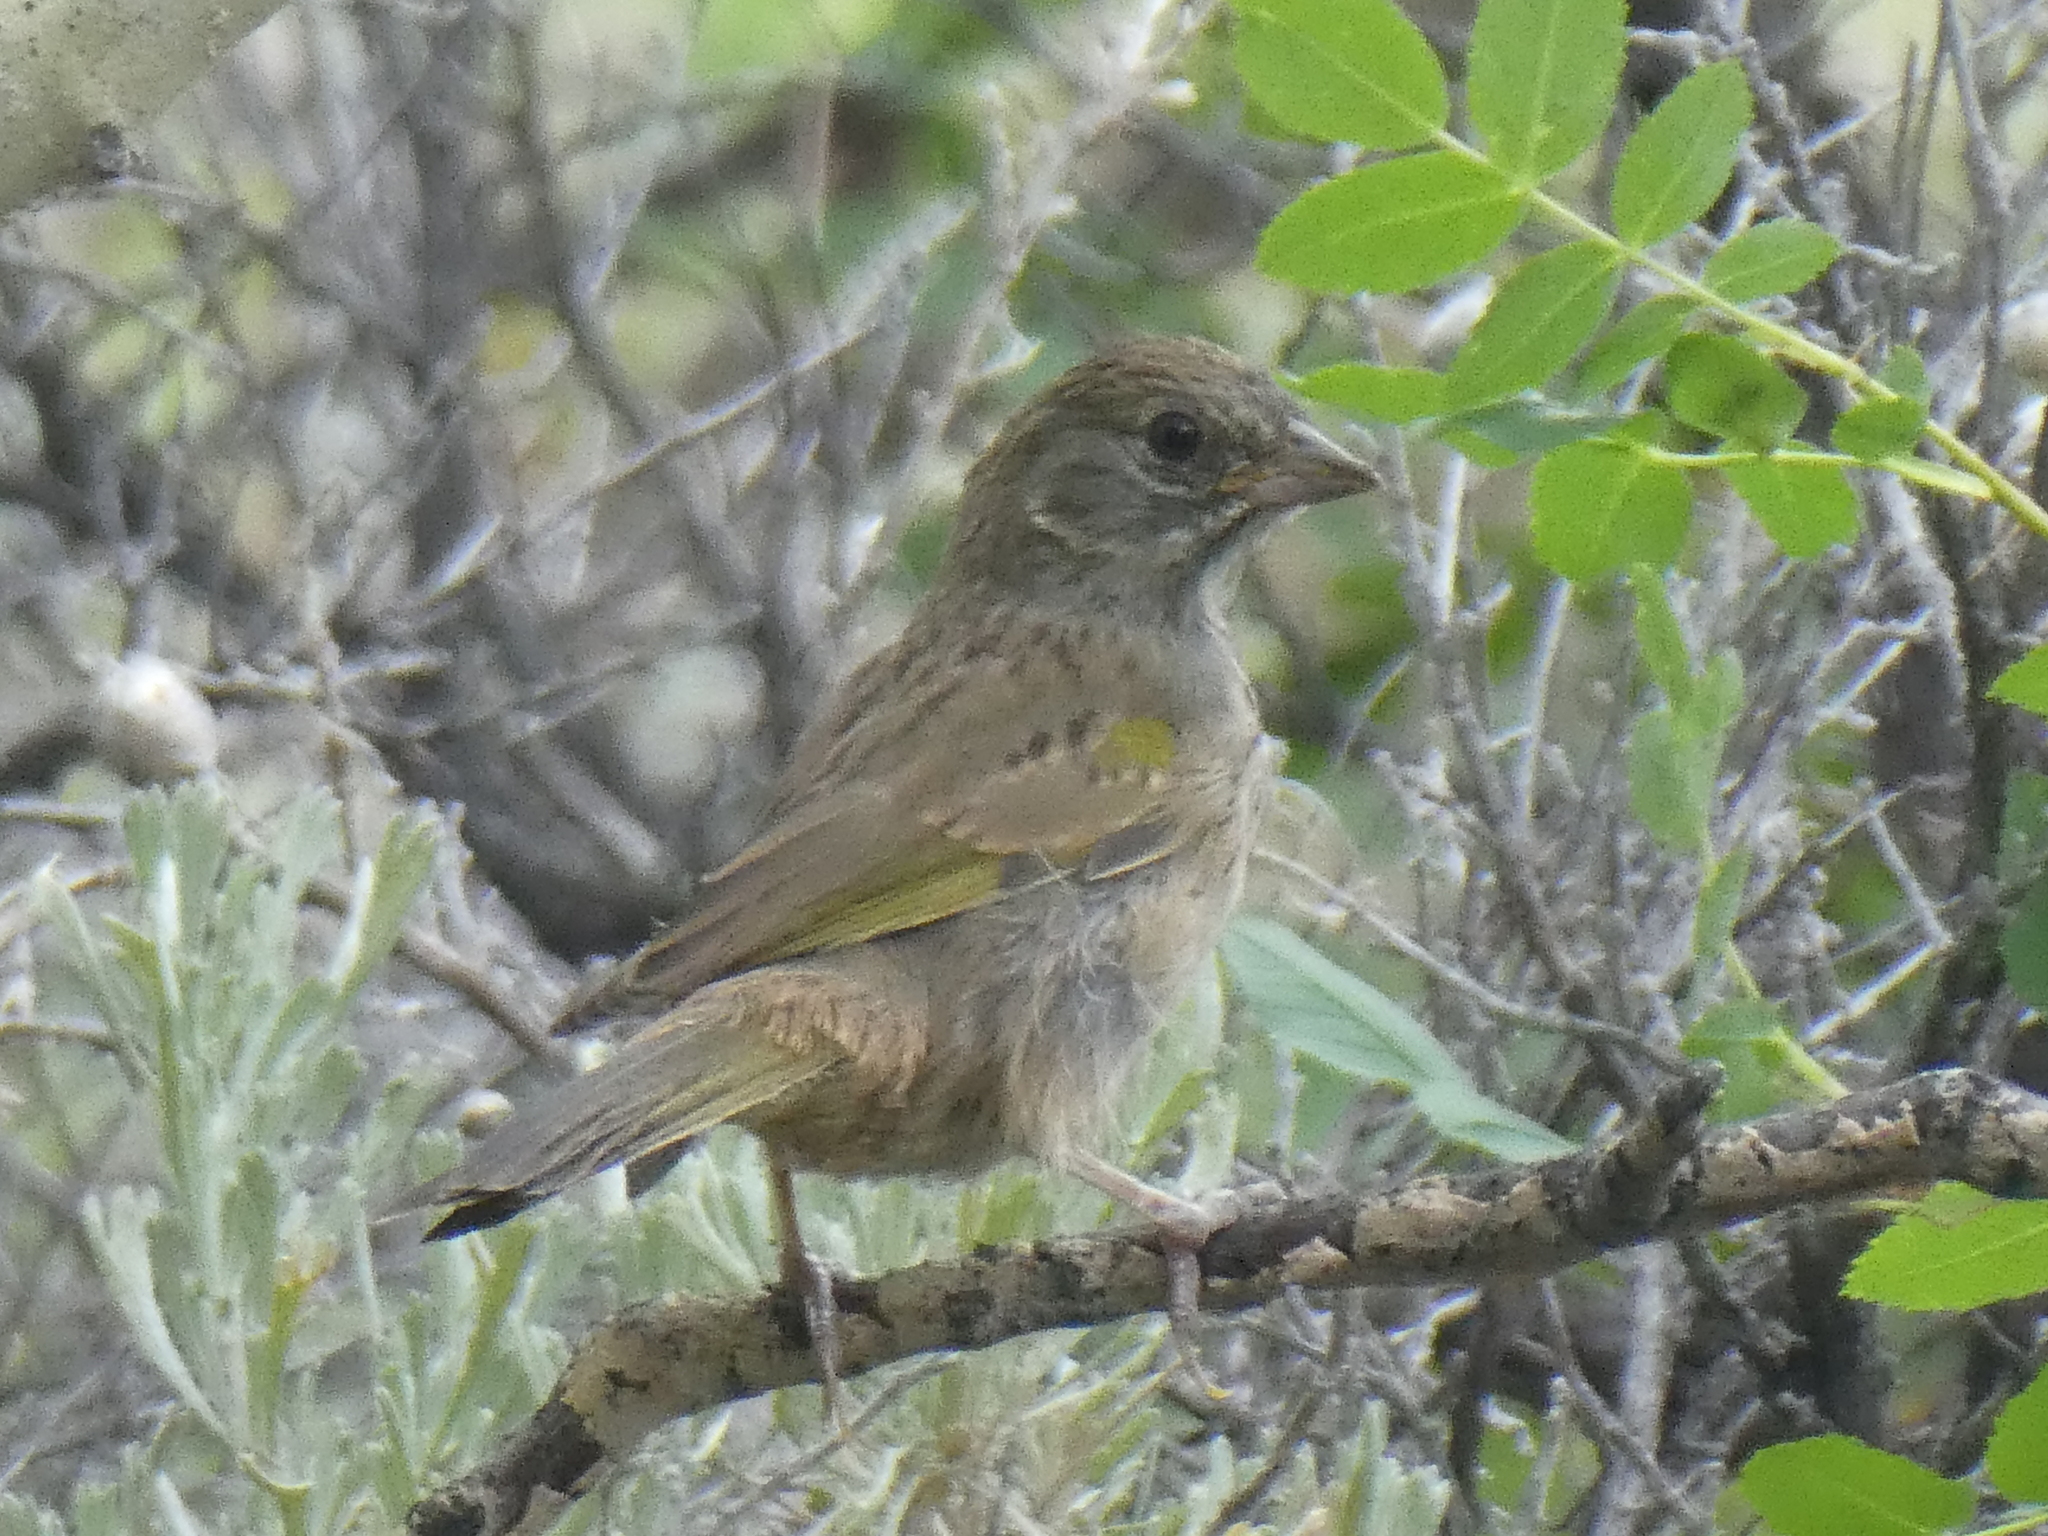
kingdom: Animalia
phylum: Chordata
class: Aves
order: Passeriformes
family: Passerellidae
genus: Pipilo
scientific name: Pipilo chlorurus
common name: Green-tailed towhee
